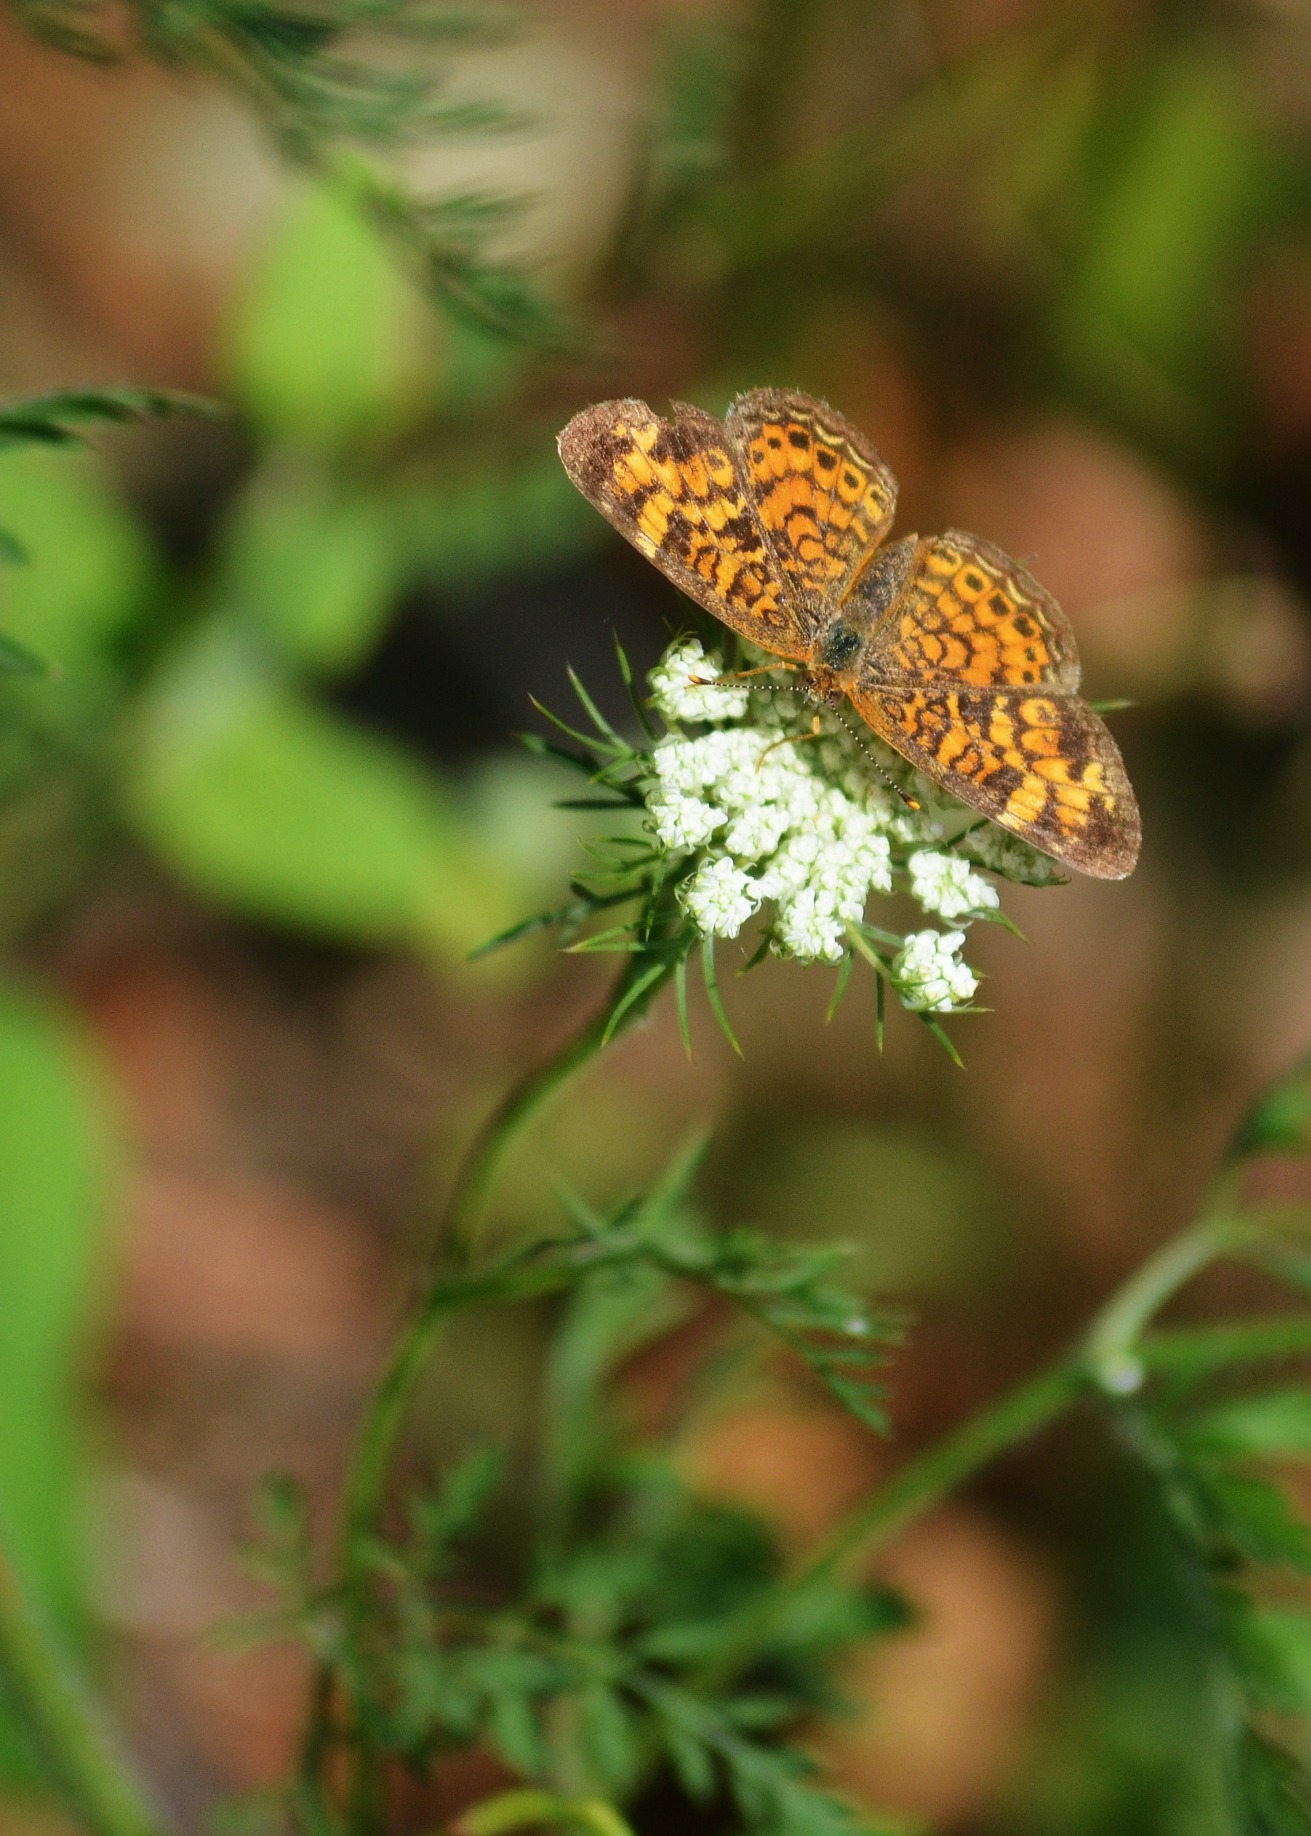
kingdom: Animalia
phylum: Arthropoda
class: Insecta
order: Lepidoptera
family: Nymphalidae
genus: Phyciodes
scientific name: Phyciodes tharos
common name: Pearl crescent
